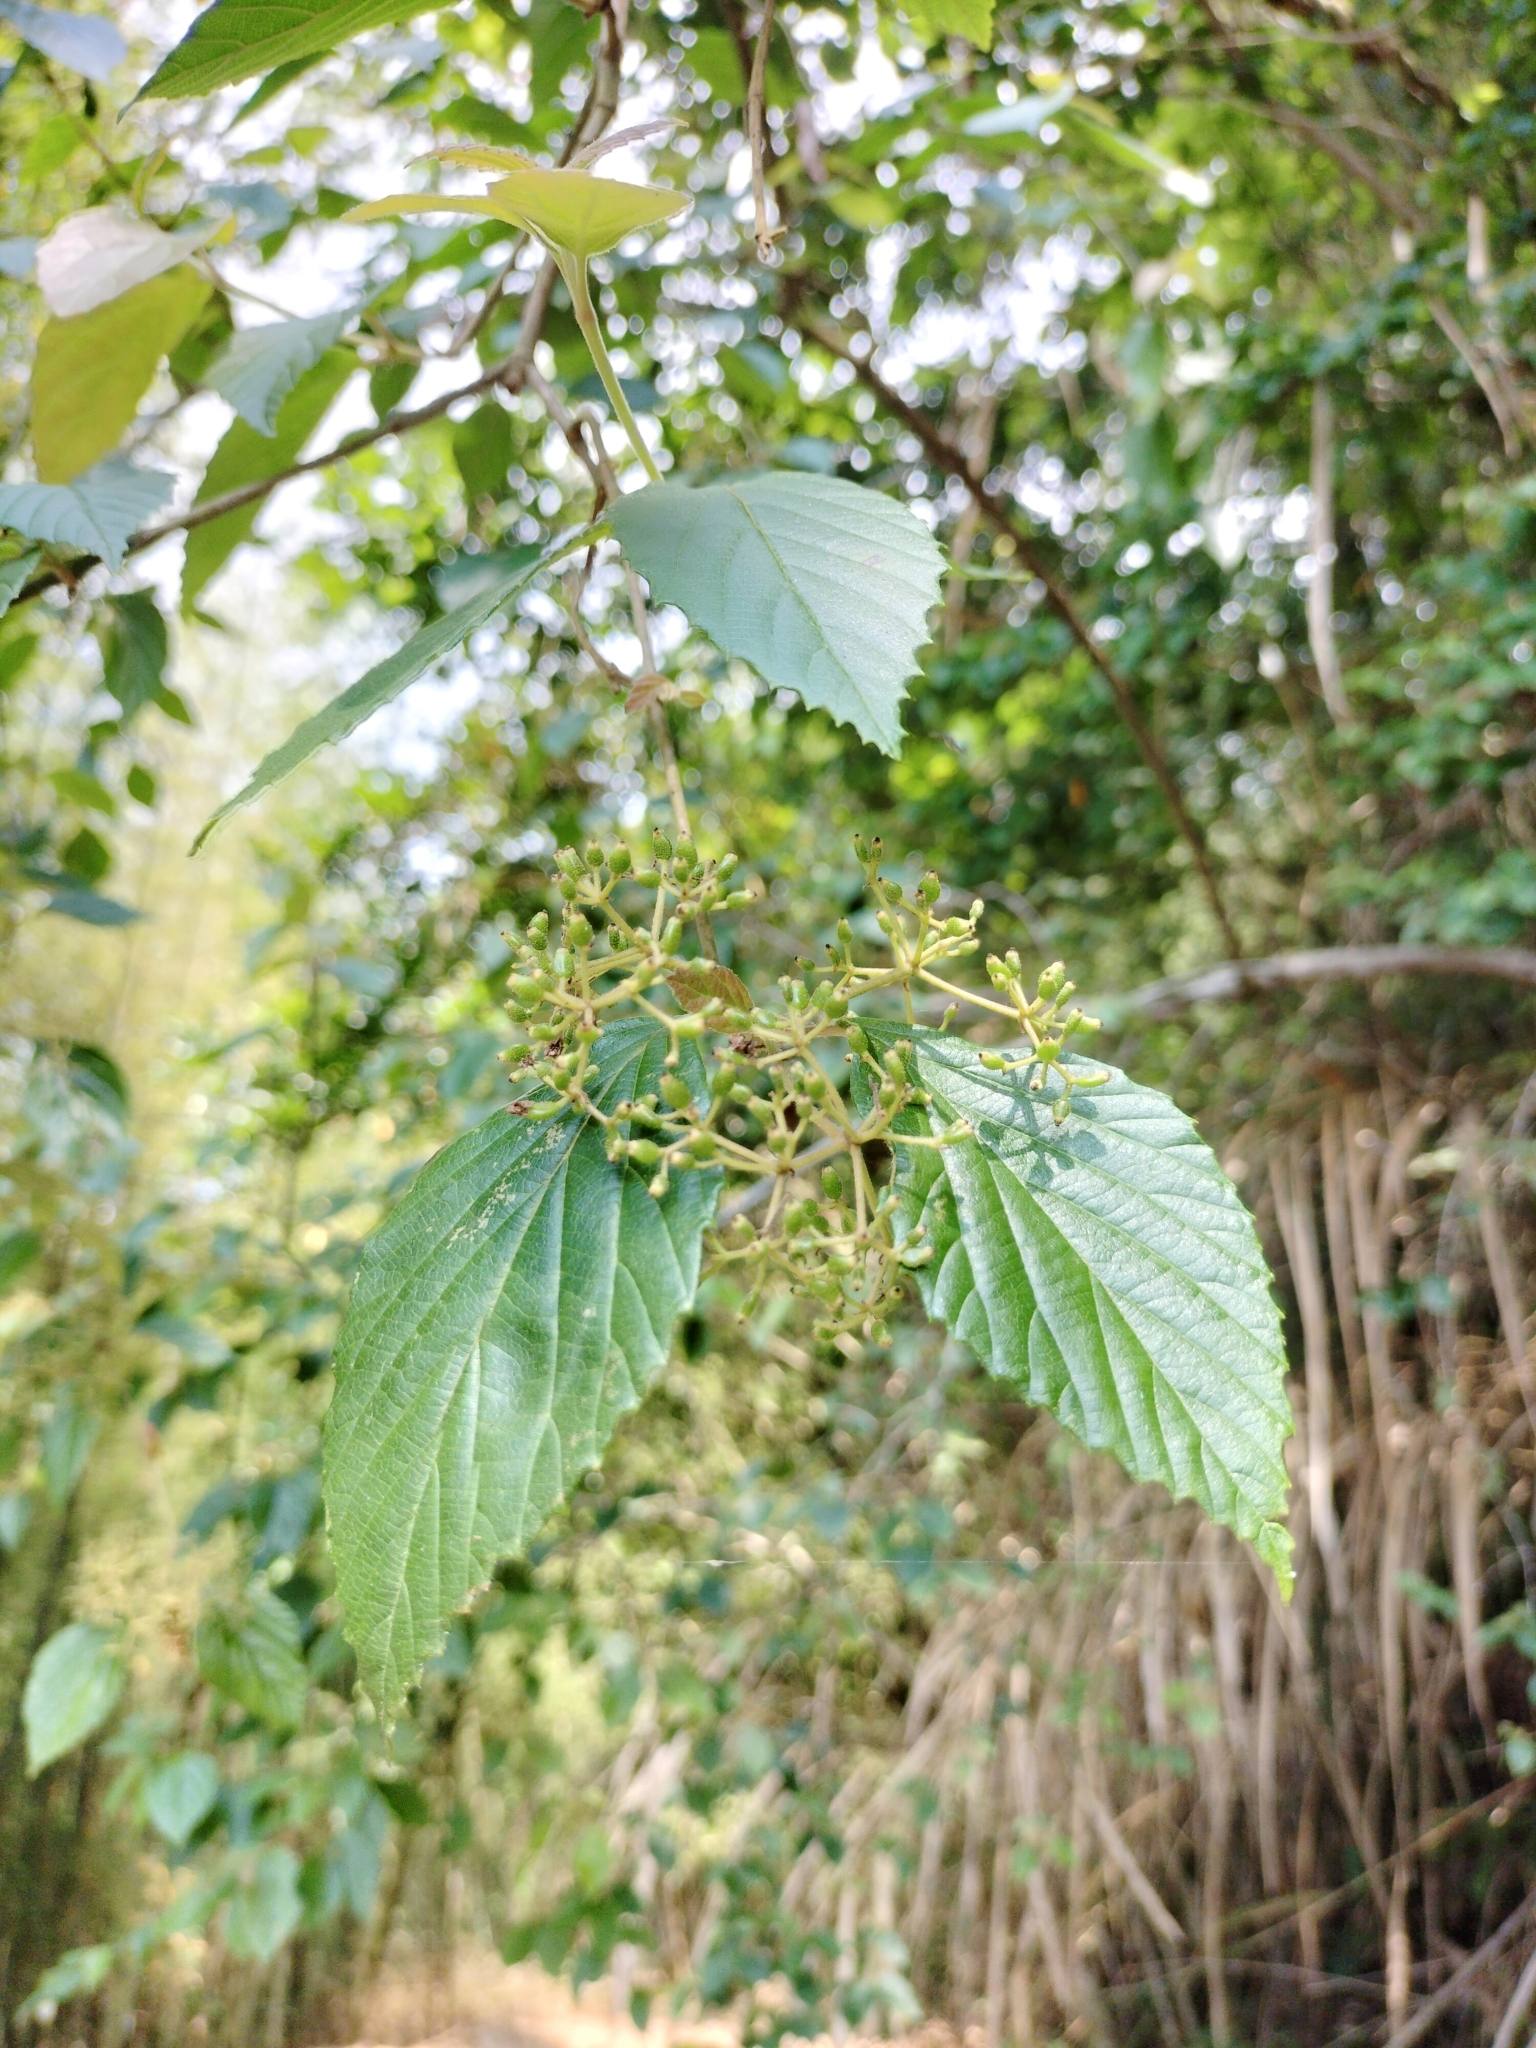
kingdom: Plantae
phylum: Tracheophyta
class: Magnoliopsida
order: Dipsacales
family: Viburnaceae
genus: Viburnum
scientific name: Viburnum luzonicum
